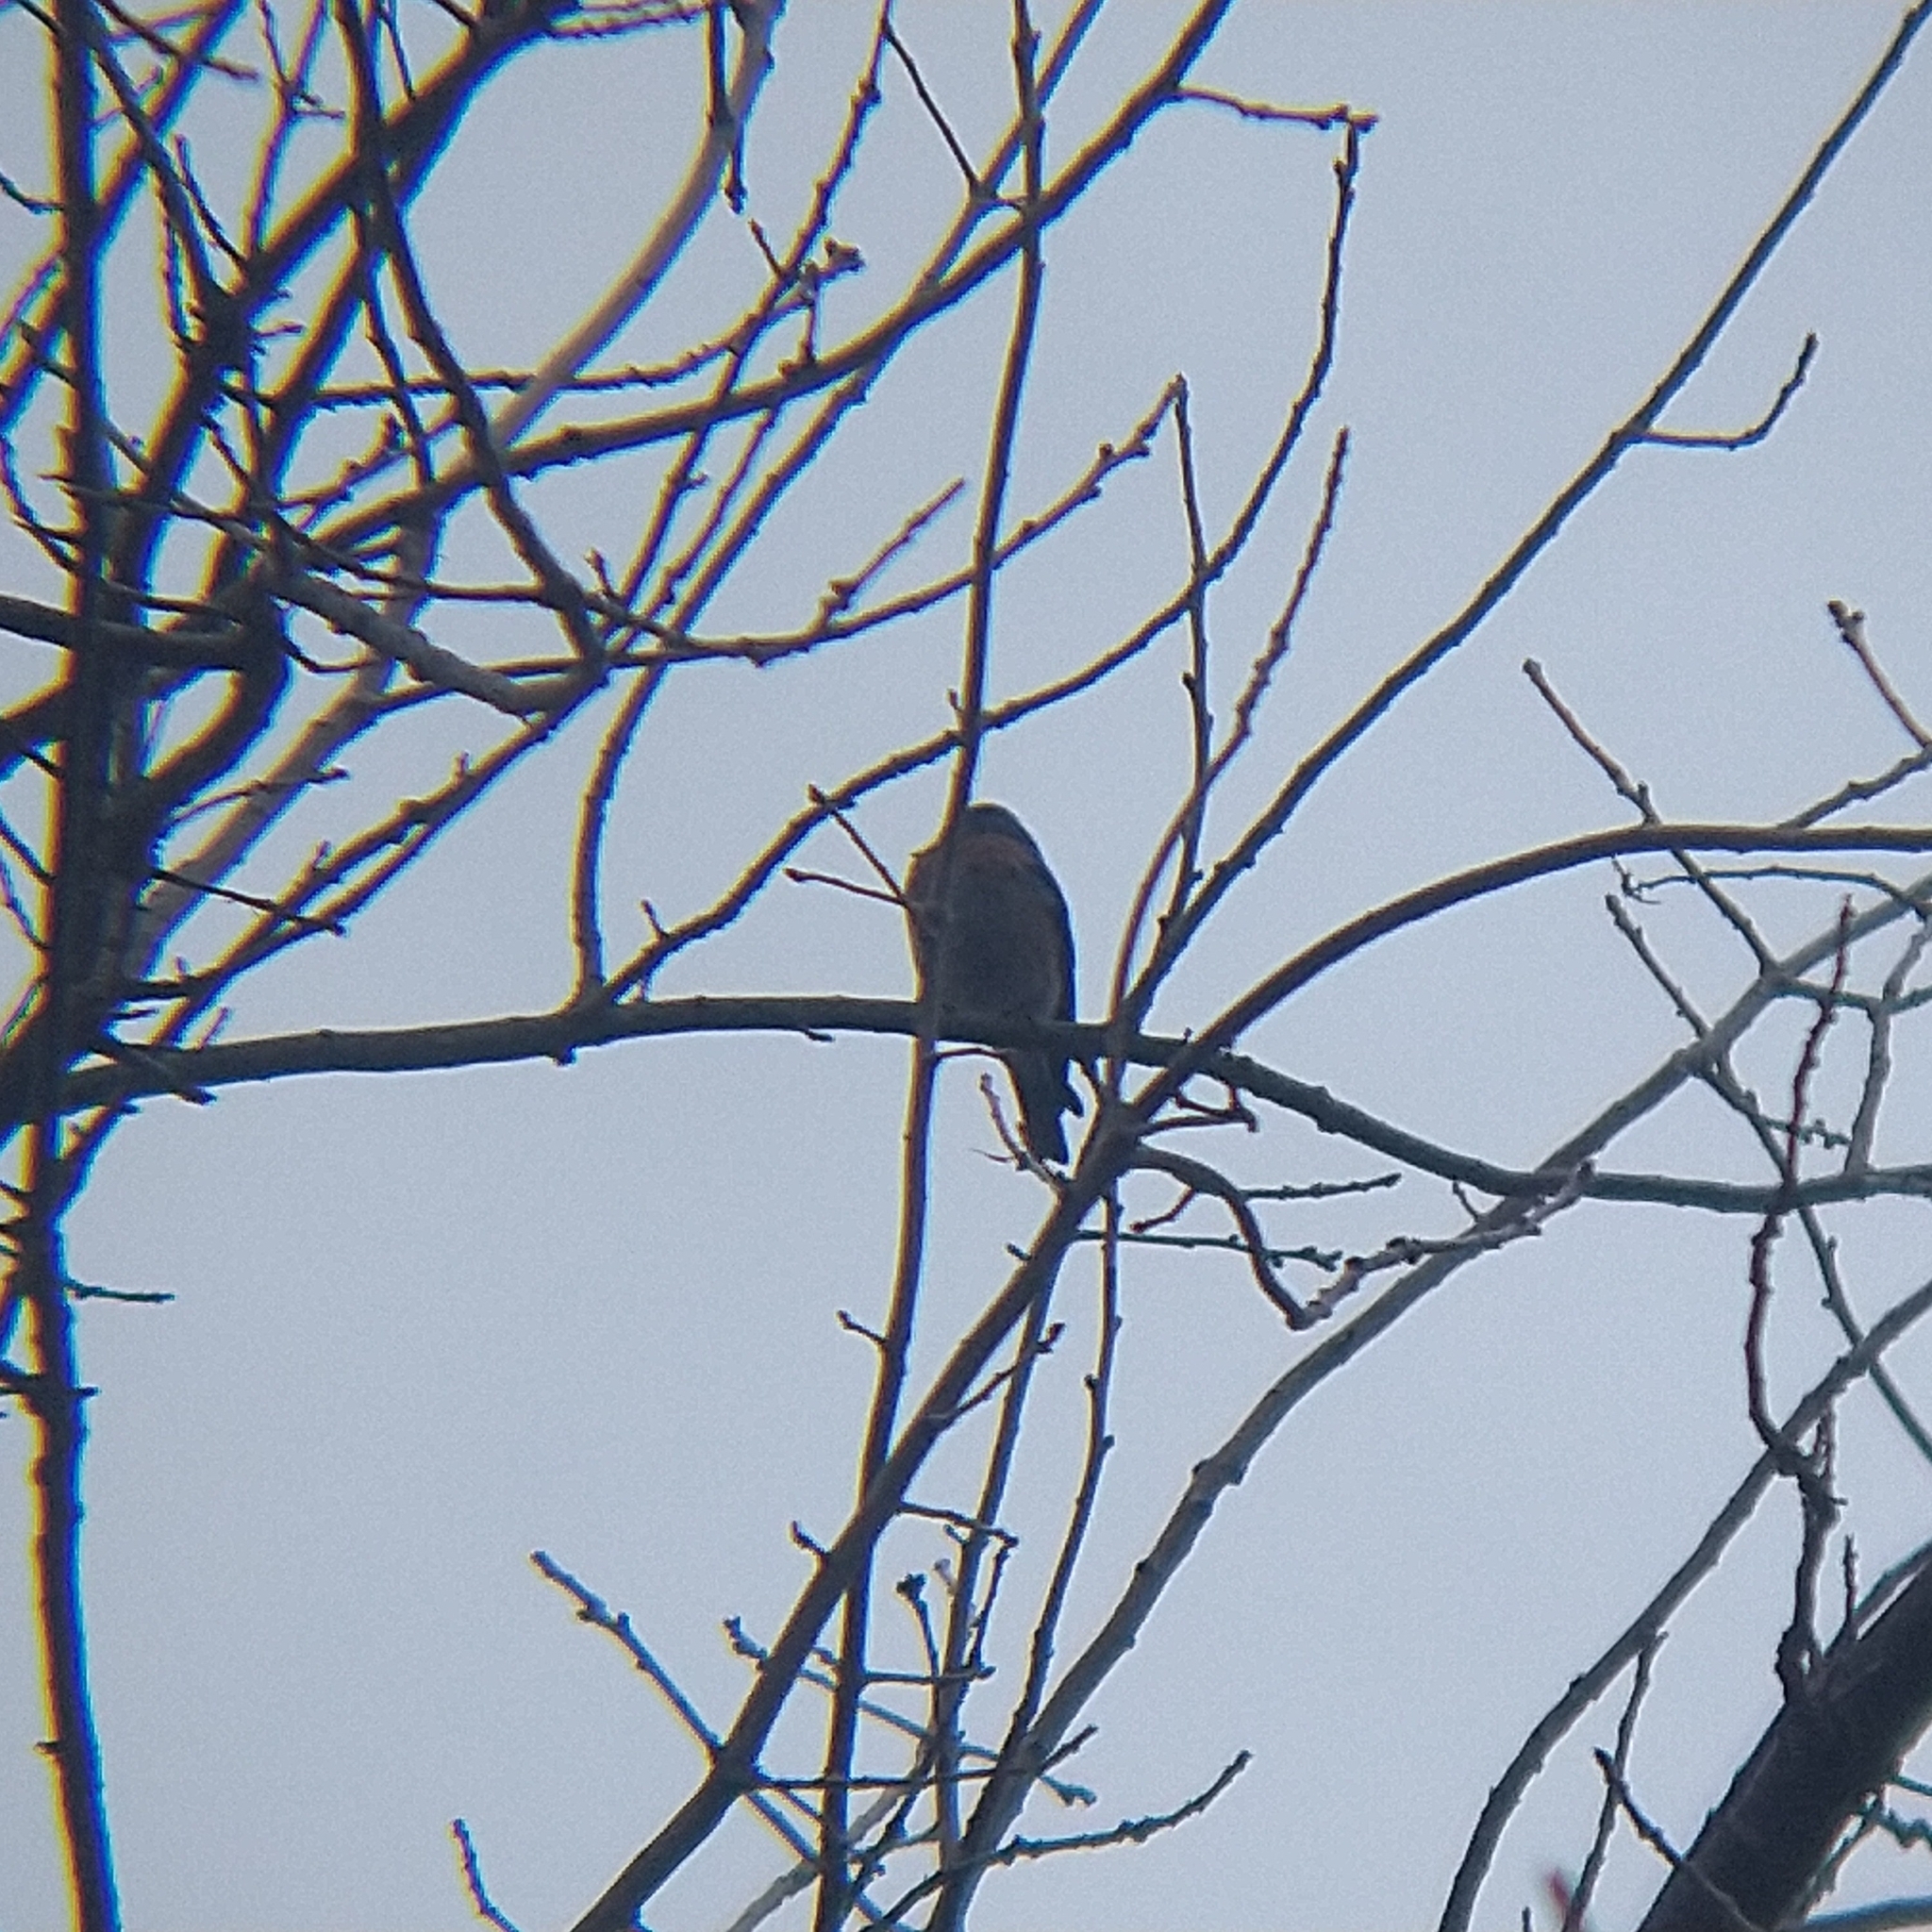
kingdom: Animalia
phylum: Chordata
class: Aves
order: Passeriformes
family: Turdidae
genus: Sialia
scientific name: Sialia mexicana
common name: Western bluebird
